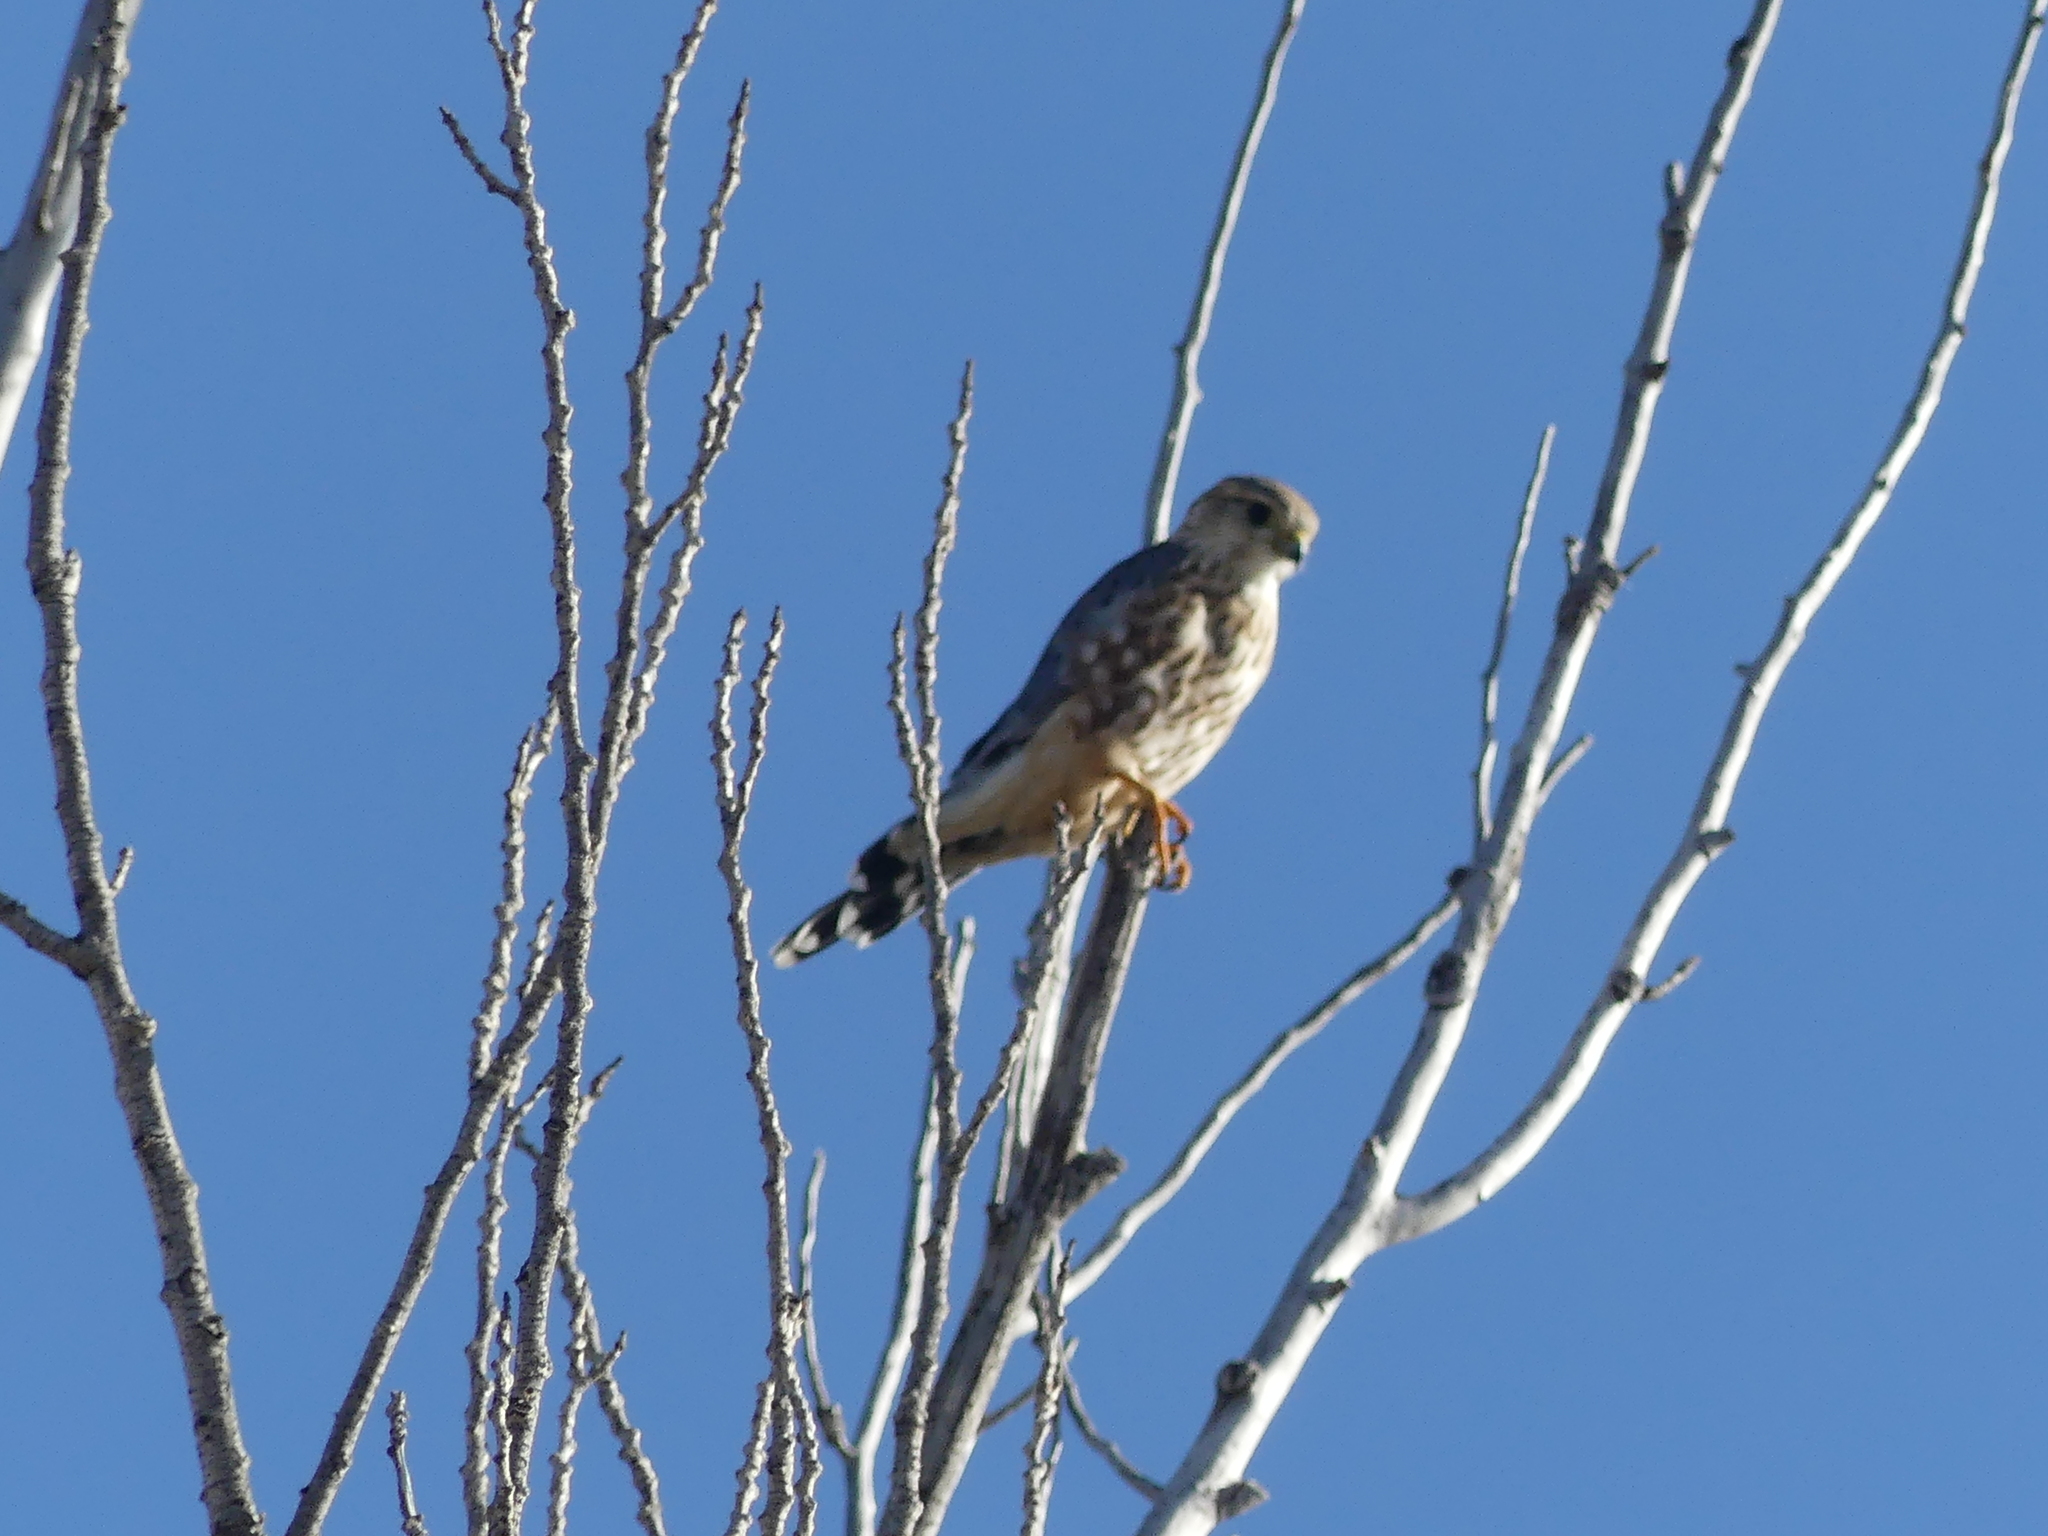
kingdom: Animalia
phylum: Chordata
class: Aves
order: Falconiformes
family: Falconidae
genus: Falco
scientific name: Falco columbarius
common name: Merlin
